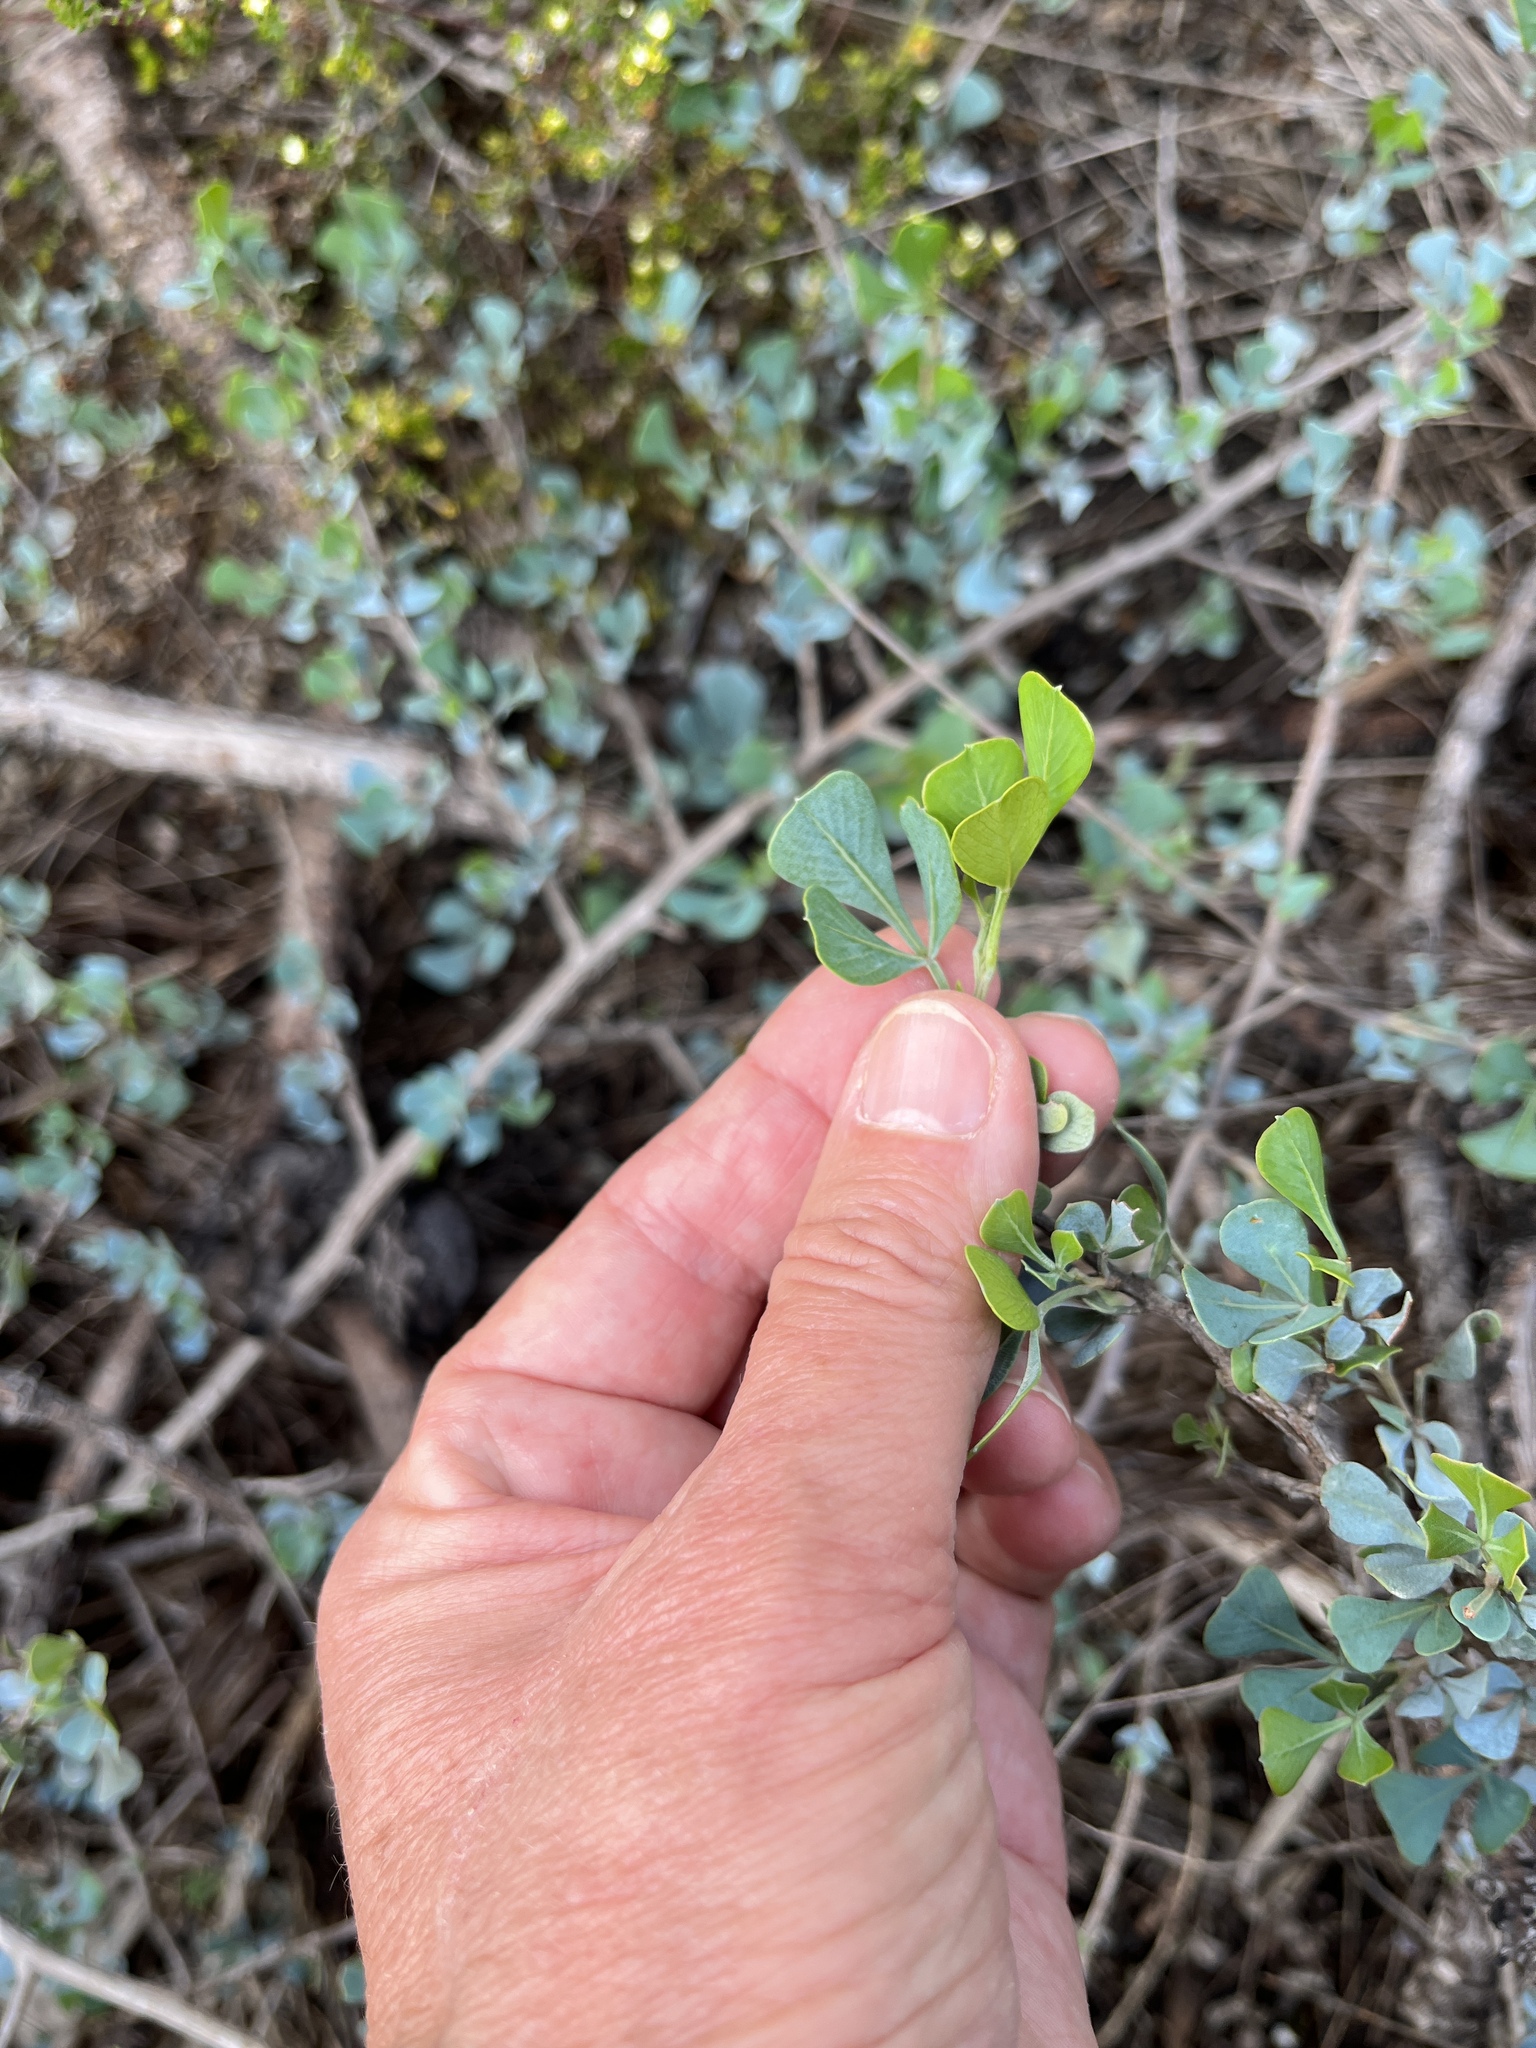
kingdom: Plantae
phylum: Tracheophyta
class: Magnoliopsida
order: Sapindales
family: Anacardiaceae
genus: Searsia
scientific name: Searsia glauca
